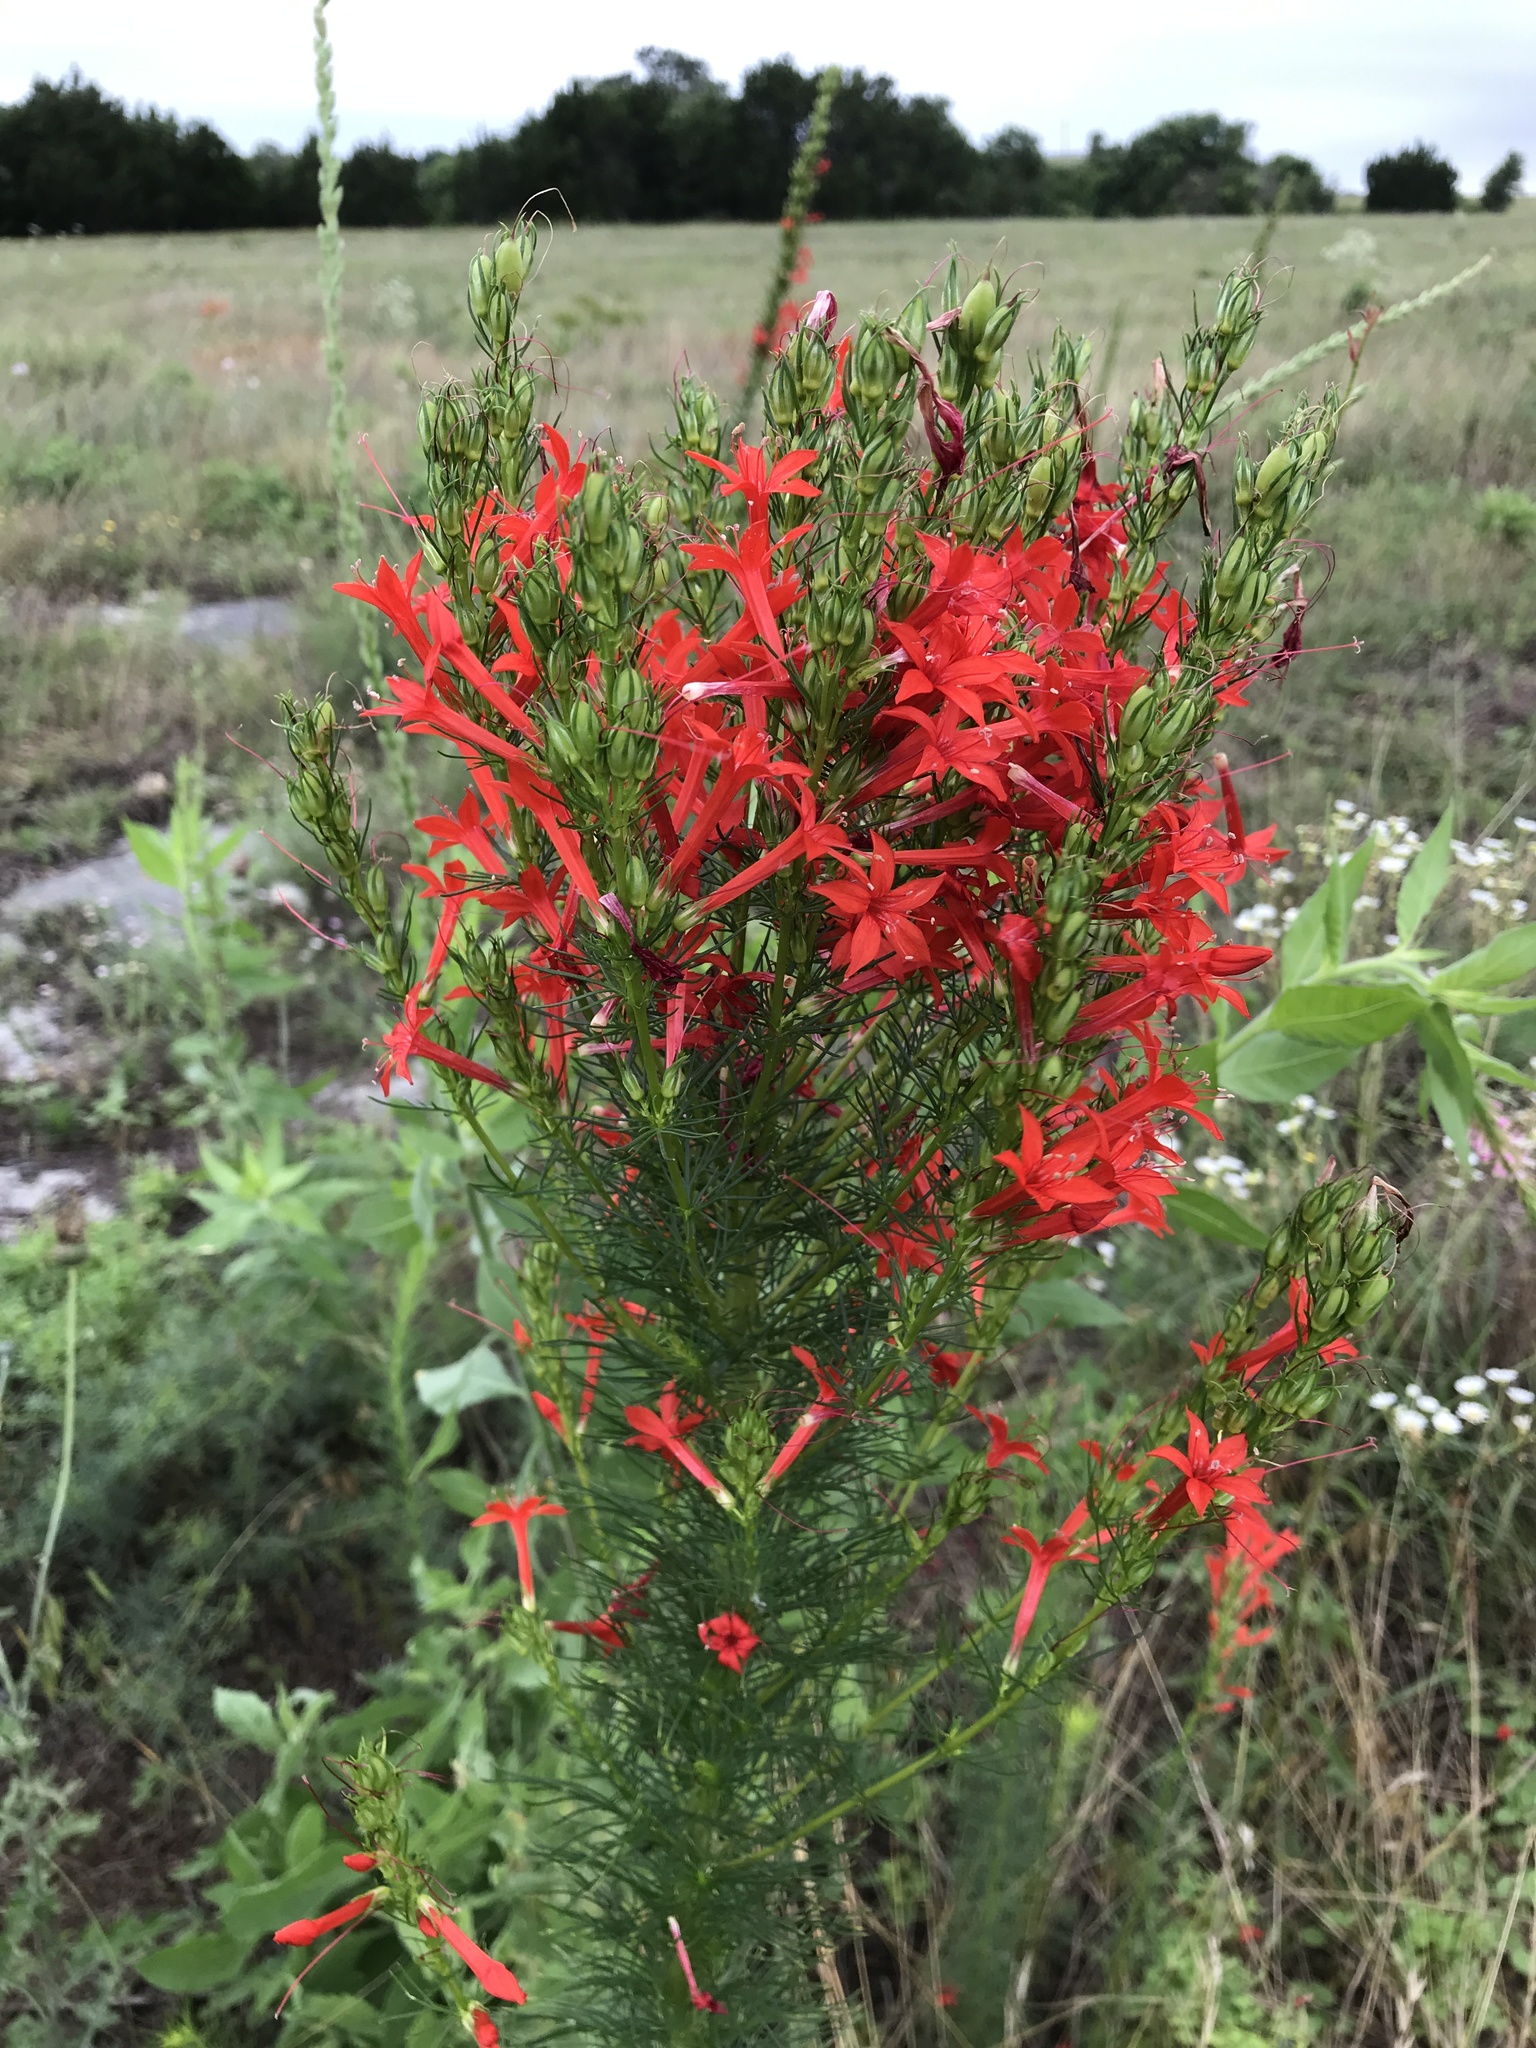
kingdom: Plantae
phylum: Tracheophyta
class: Magnoliopsida
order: Ericales
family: Polemoniaceae
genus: Ipomopsis
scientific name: Ipomopsis rubra
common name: Skyrocket
